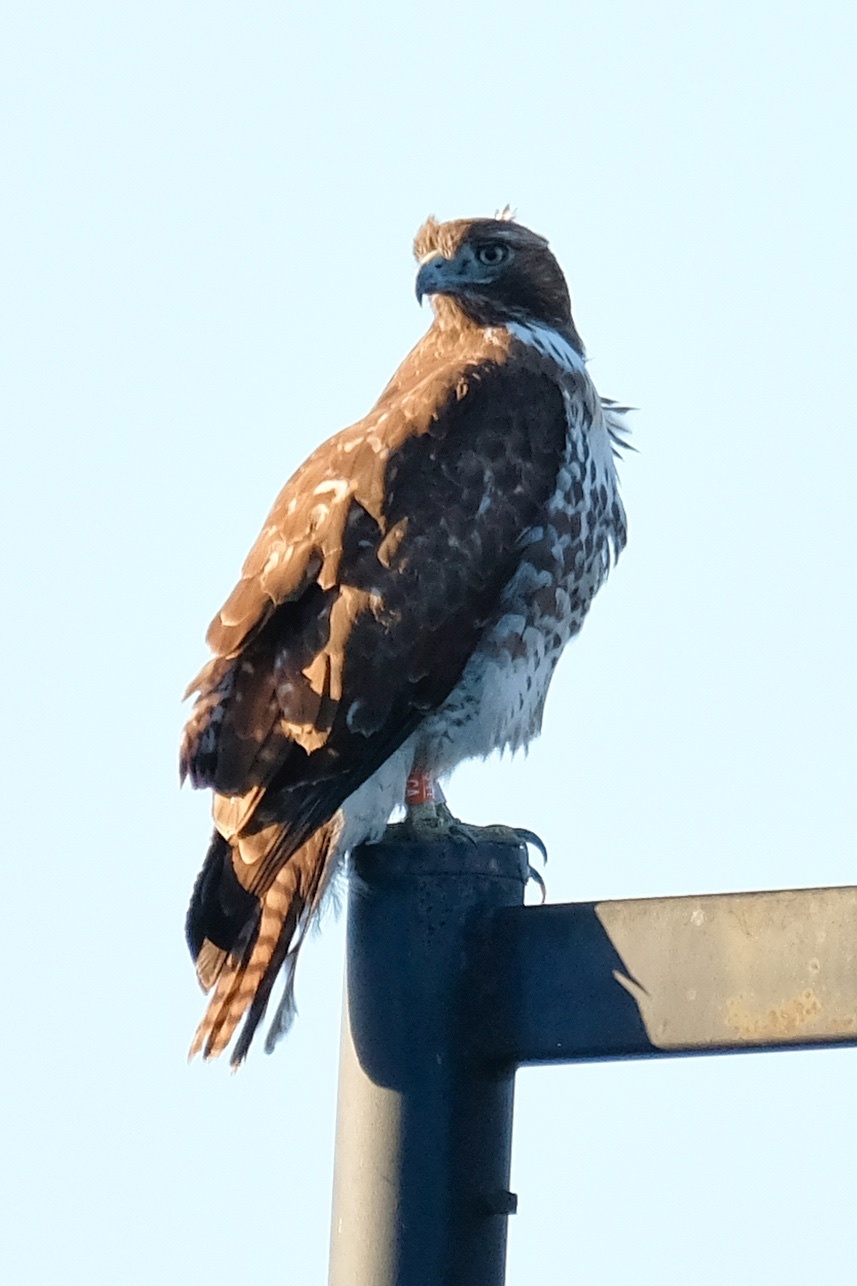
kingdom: Animalia
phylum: Chordata
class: Aves
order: Accipitriformes
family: Accipitridae
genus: Buteo
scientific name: Buteo jamaicensis
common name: Red-tailed hawk
